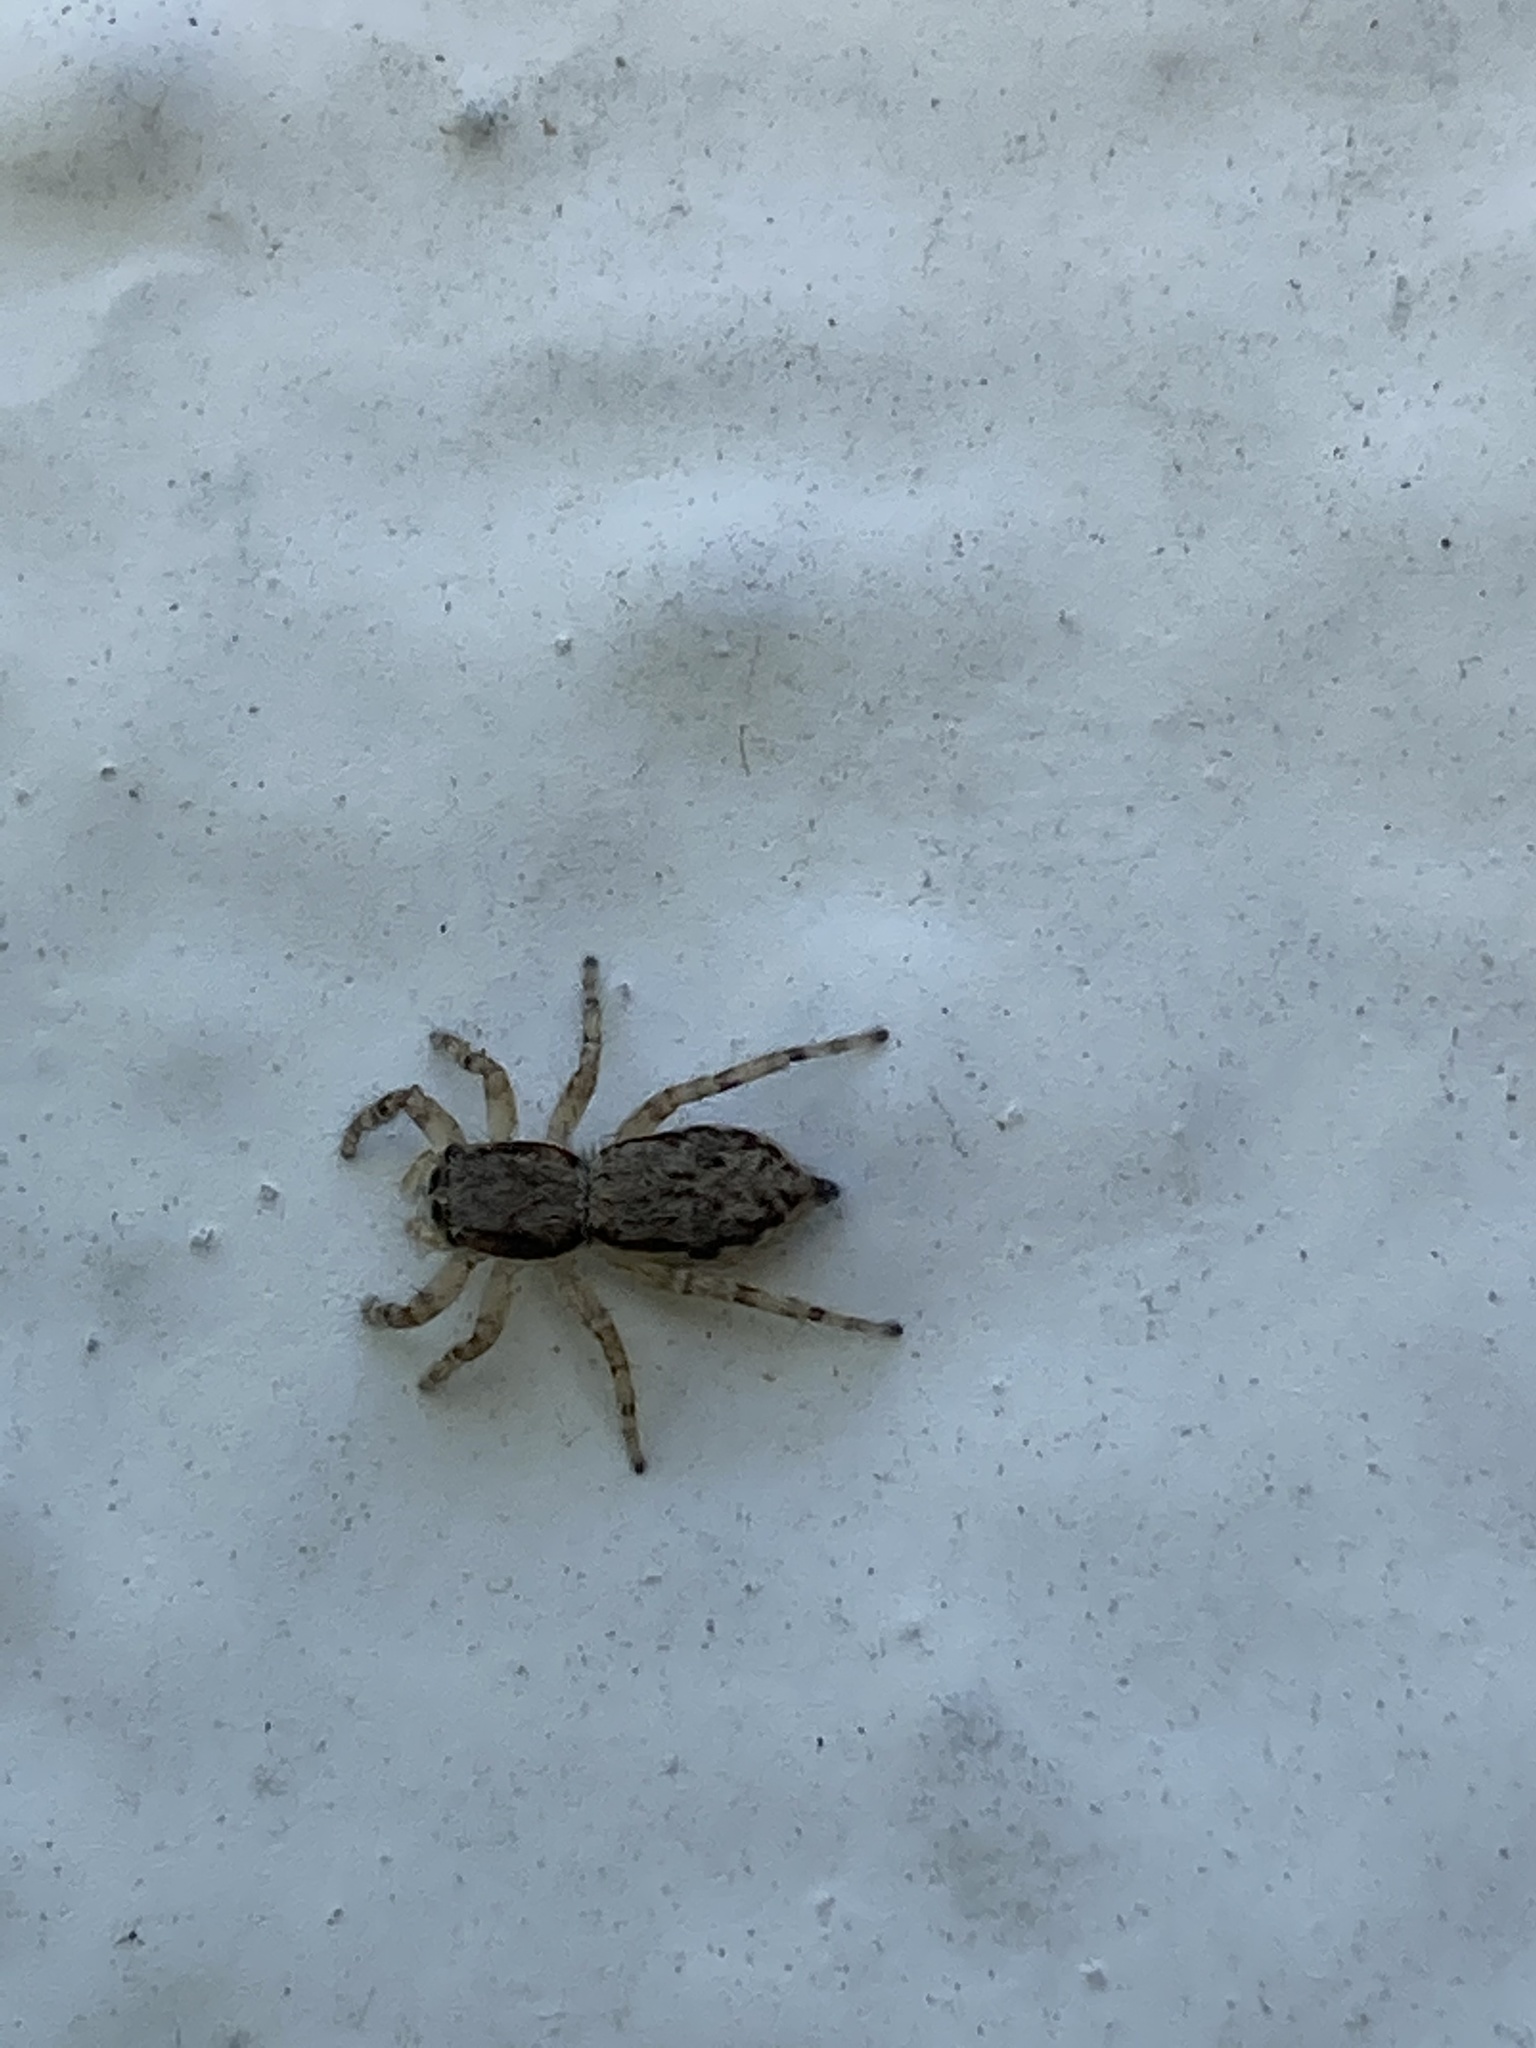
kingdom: Animalia
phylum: Arthropoda
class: Arachnida
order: Araneae
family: Salticidae
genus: Menemerus
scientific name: Menemerus bivittatus
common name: Gray wall jumper
